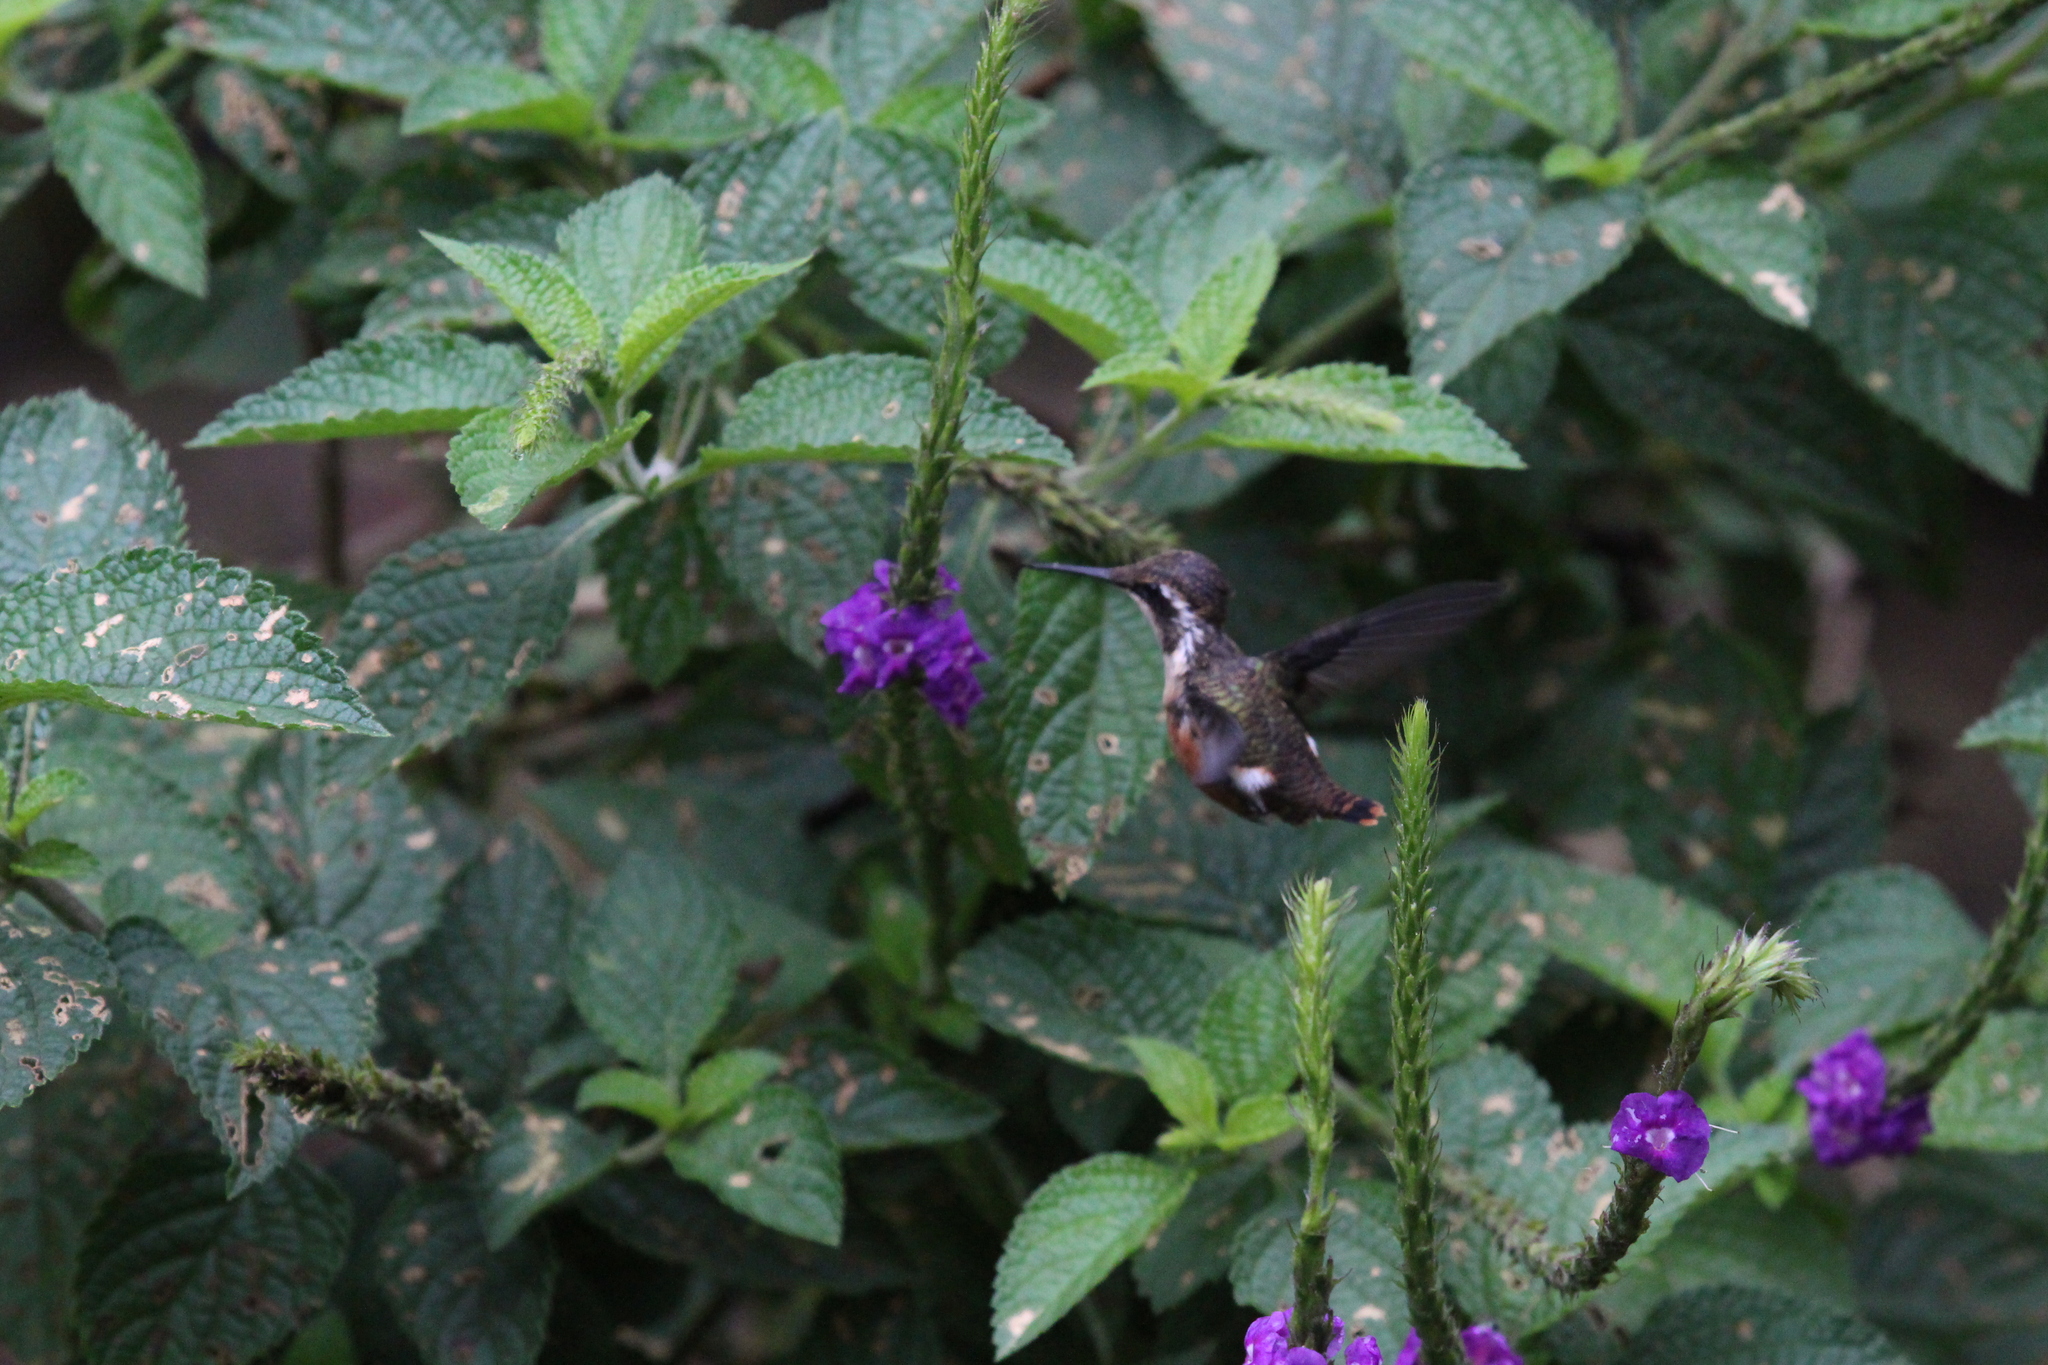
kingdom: Animalia
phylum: Chordata
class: Aves
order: Apodiformes
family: Trochilidae
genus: Chaetocercus
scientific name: Chaetocercus mulsant
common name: White-bellied woodstar
